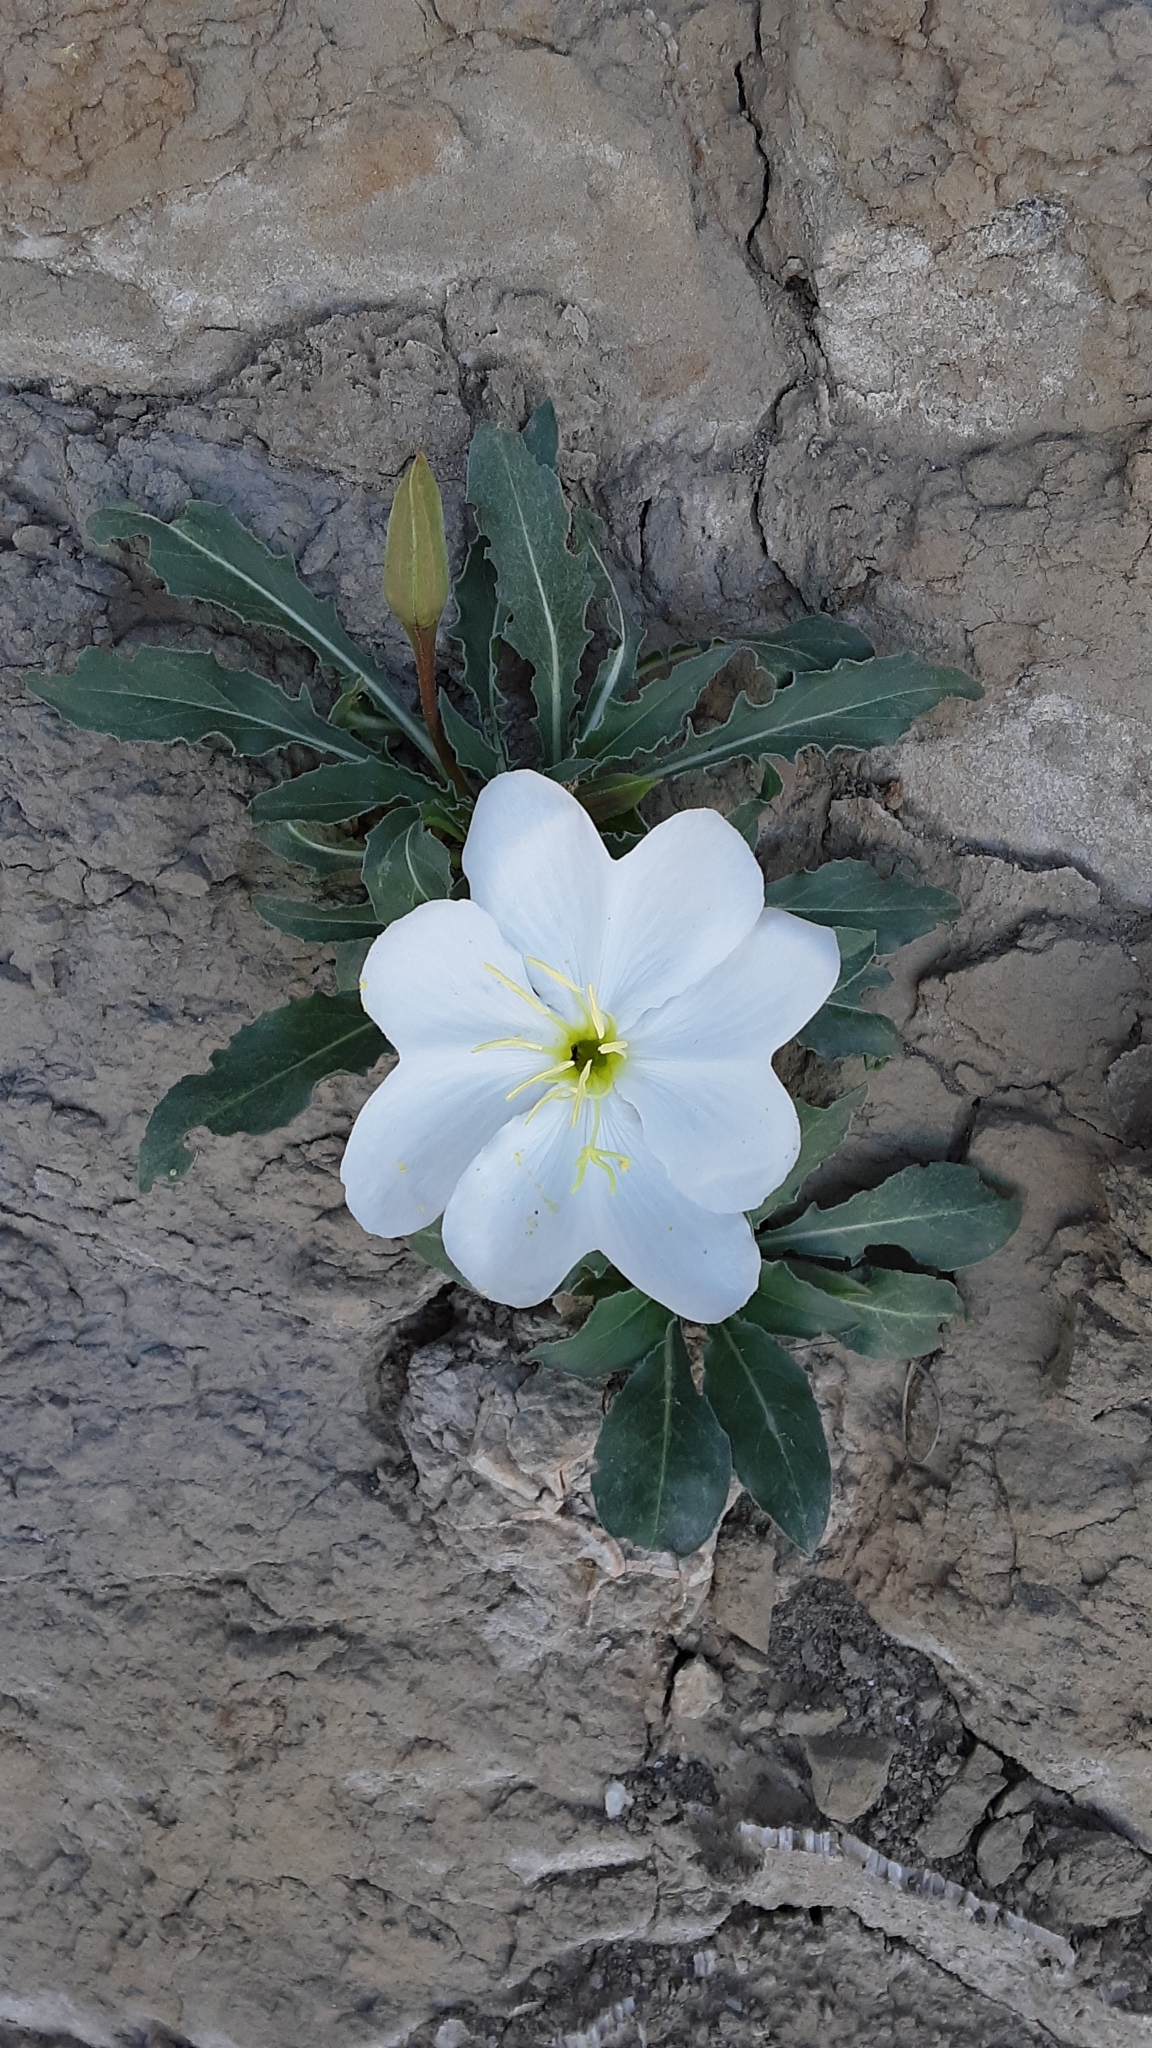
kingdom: Plantae
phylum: Tracheophyta
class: Magnoliopsida
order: Myrtales
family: Onagraceae
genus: Oenothera
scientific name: Oenothera cespitosa
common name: Tufted evening-primrose
